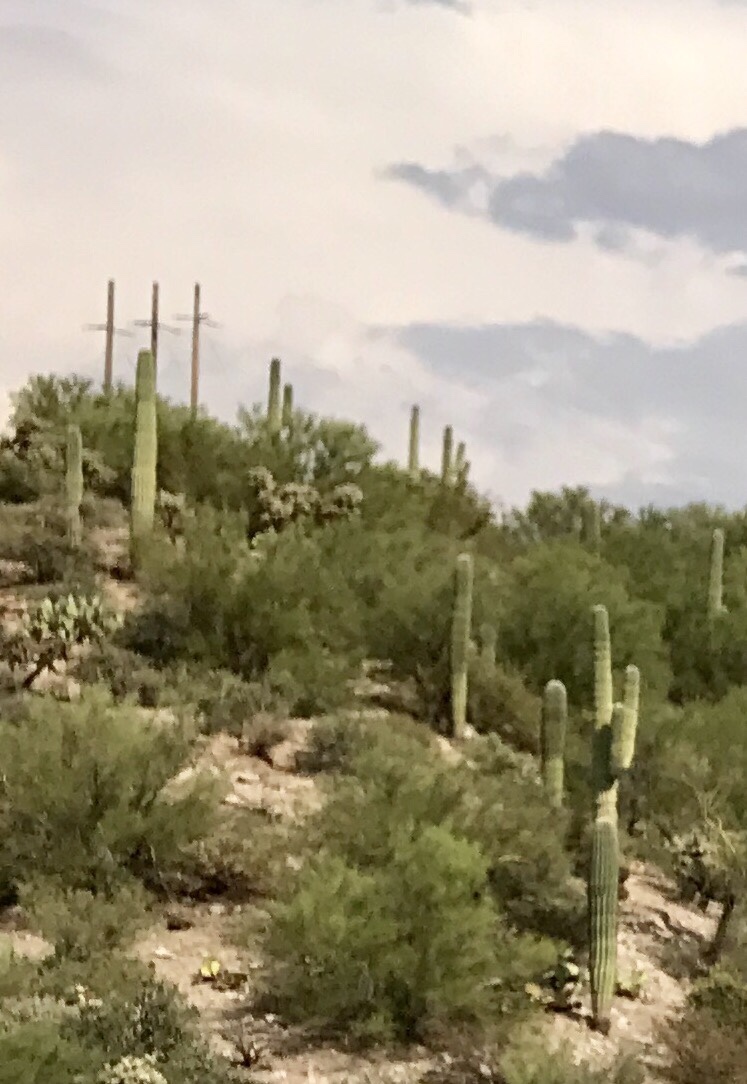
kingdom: Plantae
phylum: Tracheophyta
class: Magnoliopsida
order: Caryophyllales
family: Cactaceae
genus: Carnegiea
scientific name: Carnegiea gigantea
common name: Saguaro
